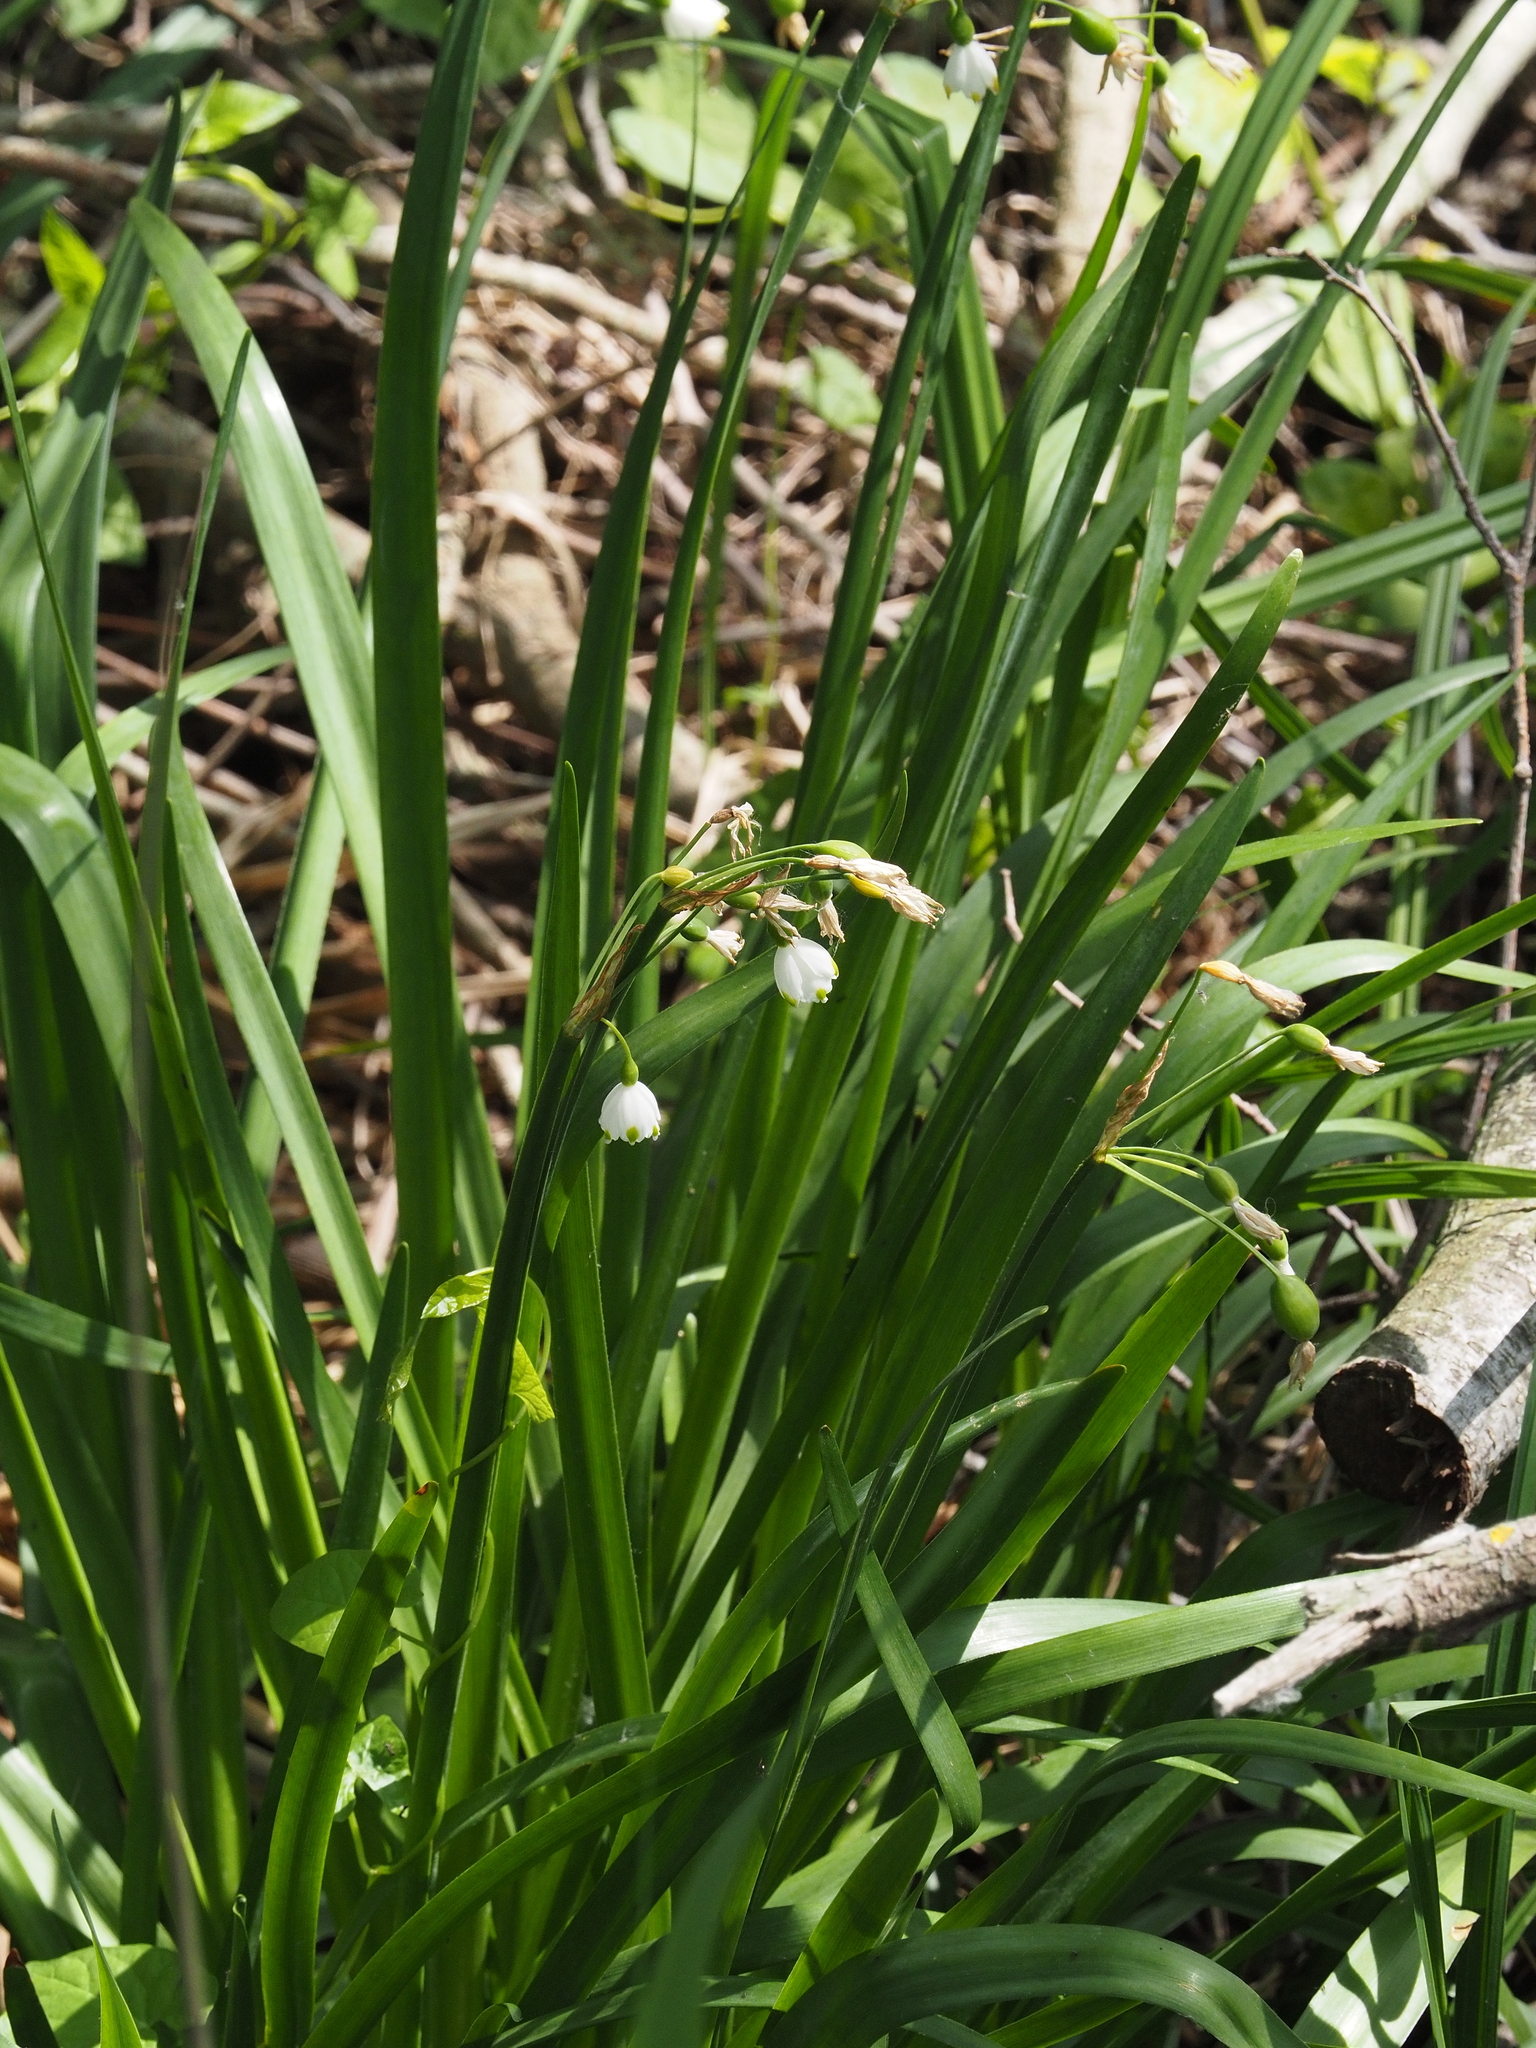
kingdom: Plantae
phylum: Tracheophyta
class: Liliopsida
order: Asparagales
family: Amaryllidaceae
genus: Leucojum
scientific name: Leucojum aestivum
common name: Summer snowflake
